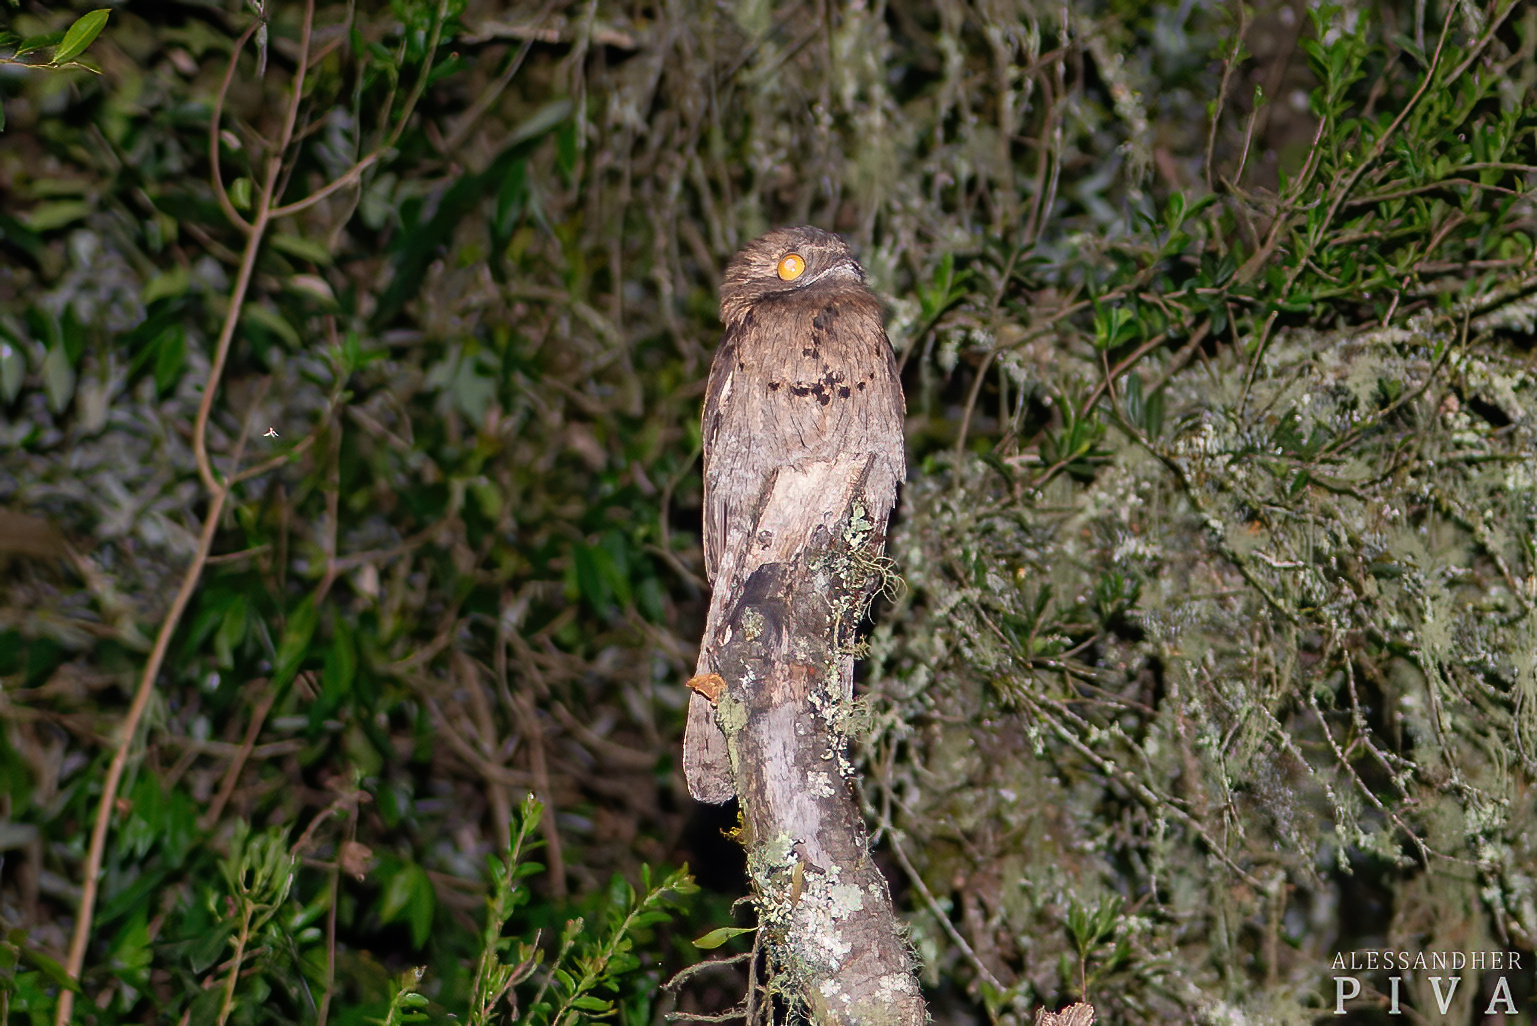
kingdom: Animalia
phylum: Chordata
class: Aves
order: Nyctibiiformes
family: Nyctibiidae
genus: Nyctibius
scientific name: Nyctibius griseus
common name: Common potoo
